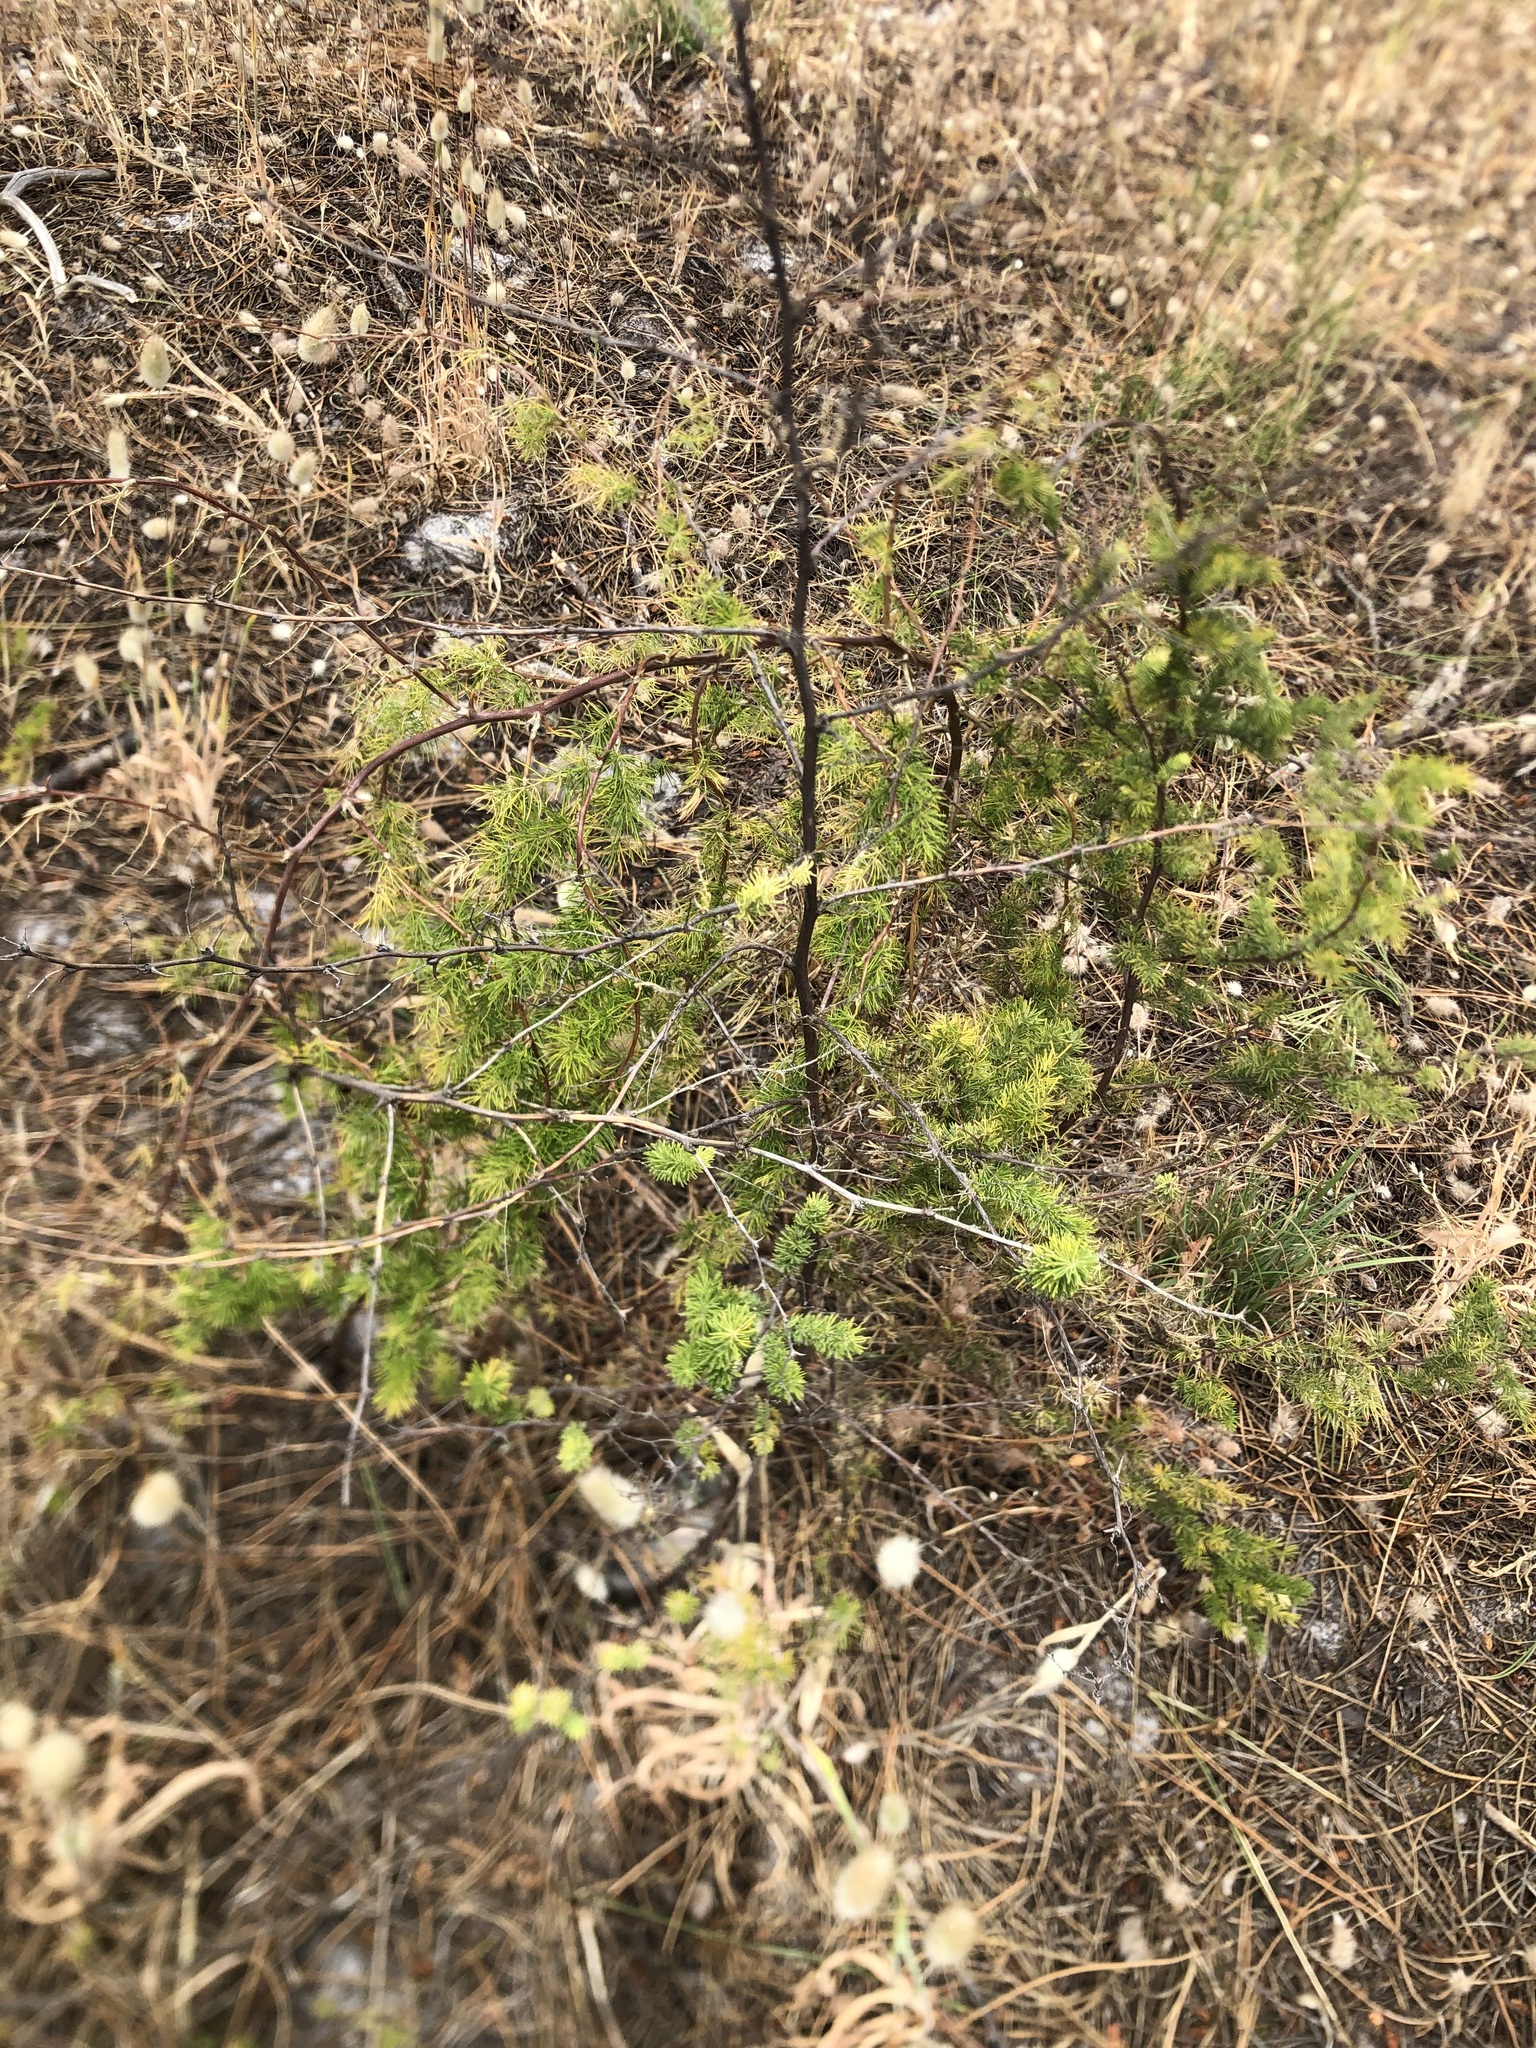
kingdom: Plantae
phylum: Tracheophyta
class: Liliopsida
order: Asparagales
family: Asparagaceae
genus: Asparagus
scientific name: Asparagus rubicundus
